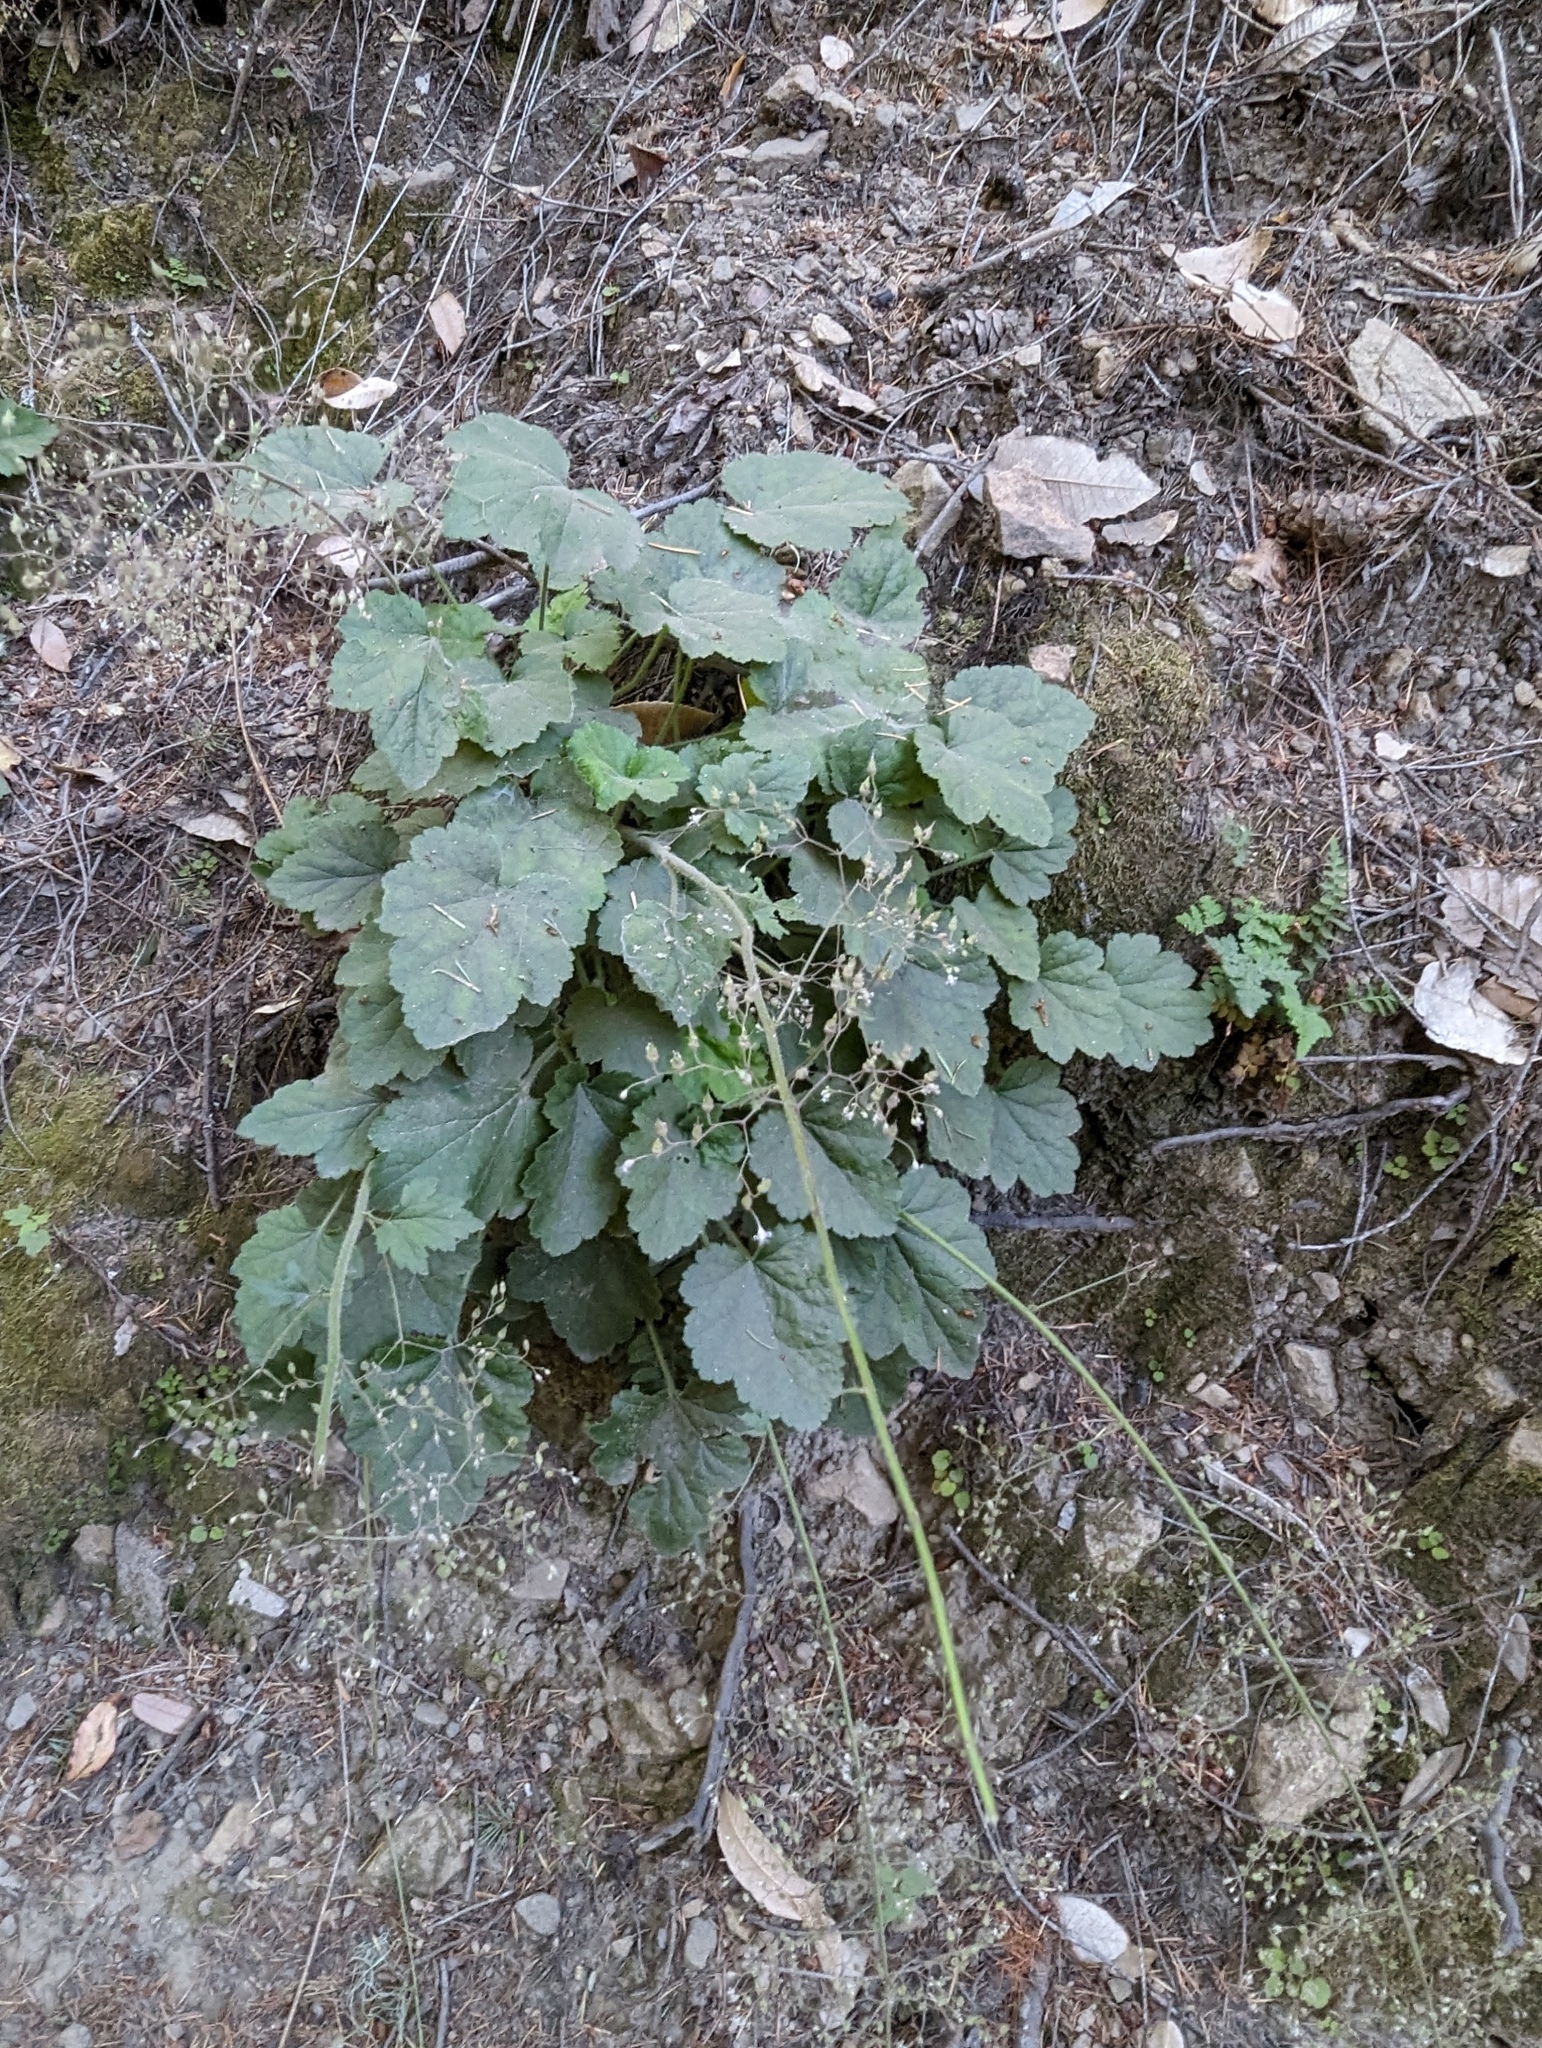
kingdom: Plantae
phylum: Tracheophyta
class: Magnoliopsida
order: Saxifragales
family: Saxifragaceae
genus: Heuchera
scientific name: Heuchera micrantha
